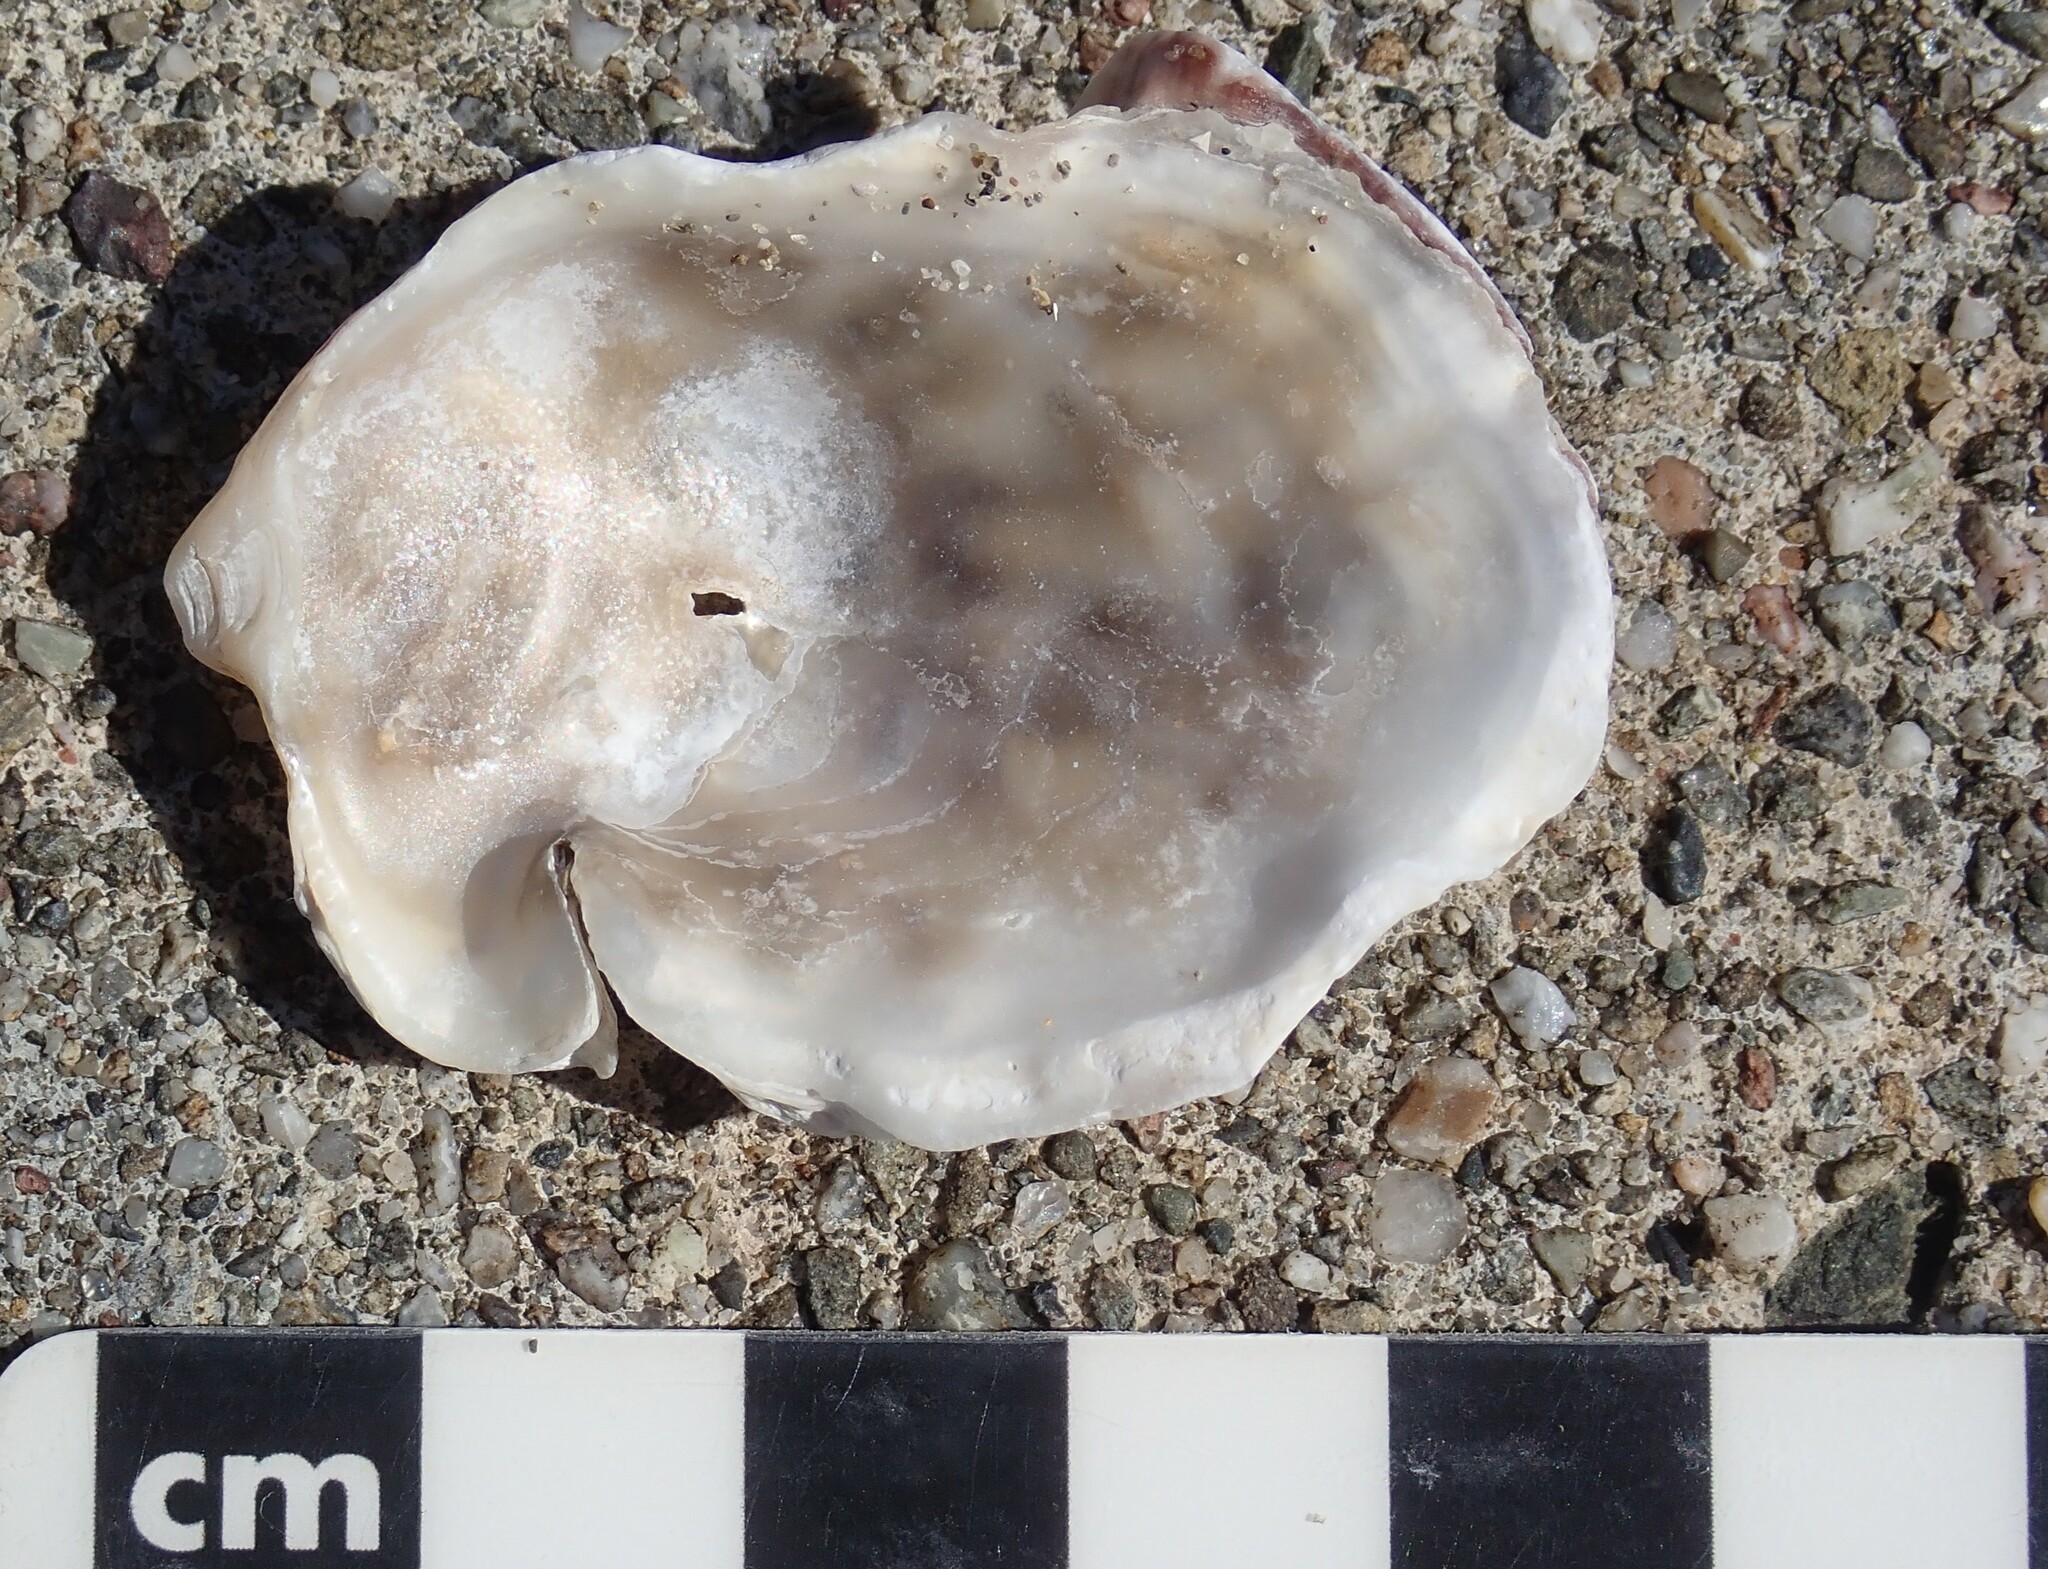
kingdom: Animalia
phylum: Mollusca
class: Bivalvia
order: Ostreida
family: Ostreidae
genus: Ostrea
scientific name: Ostrea lurida
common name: Olympia flat oyster
